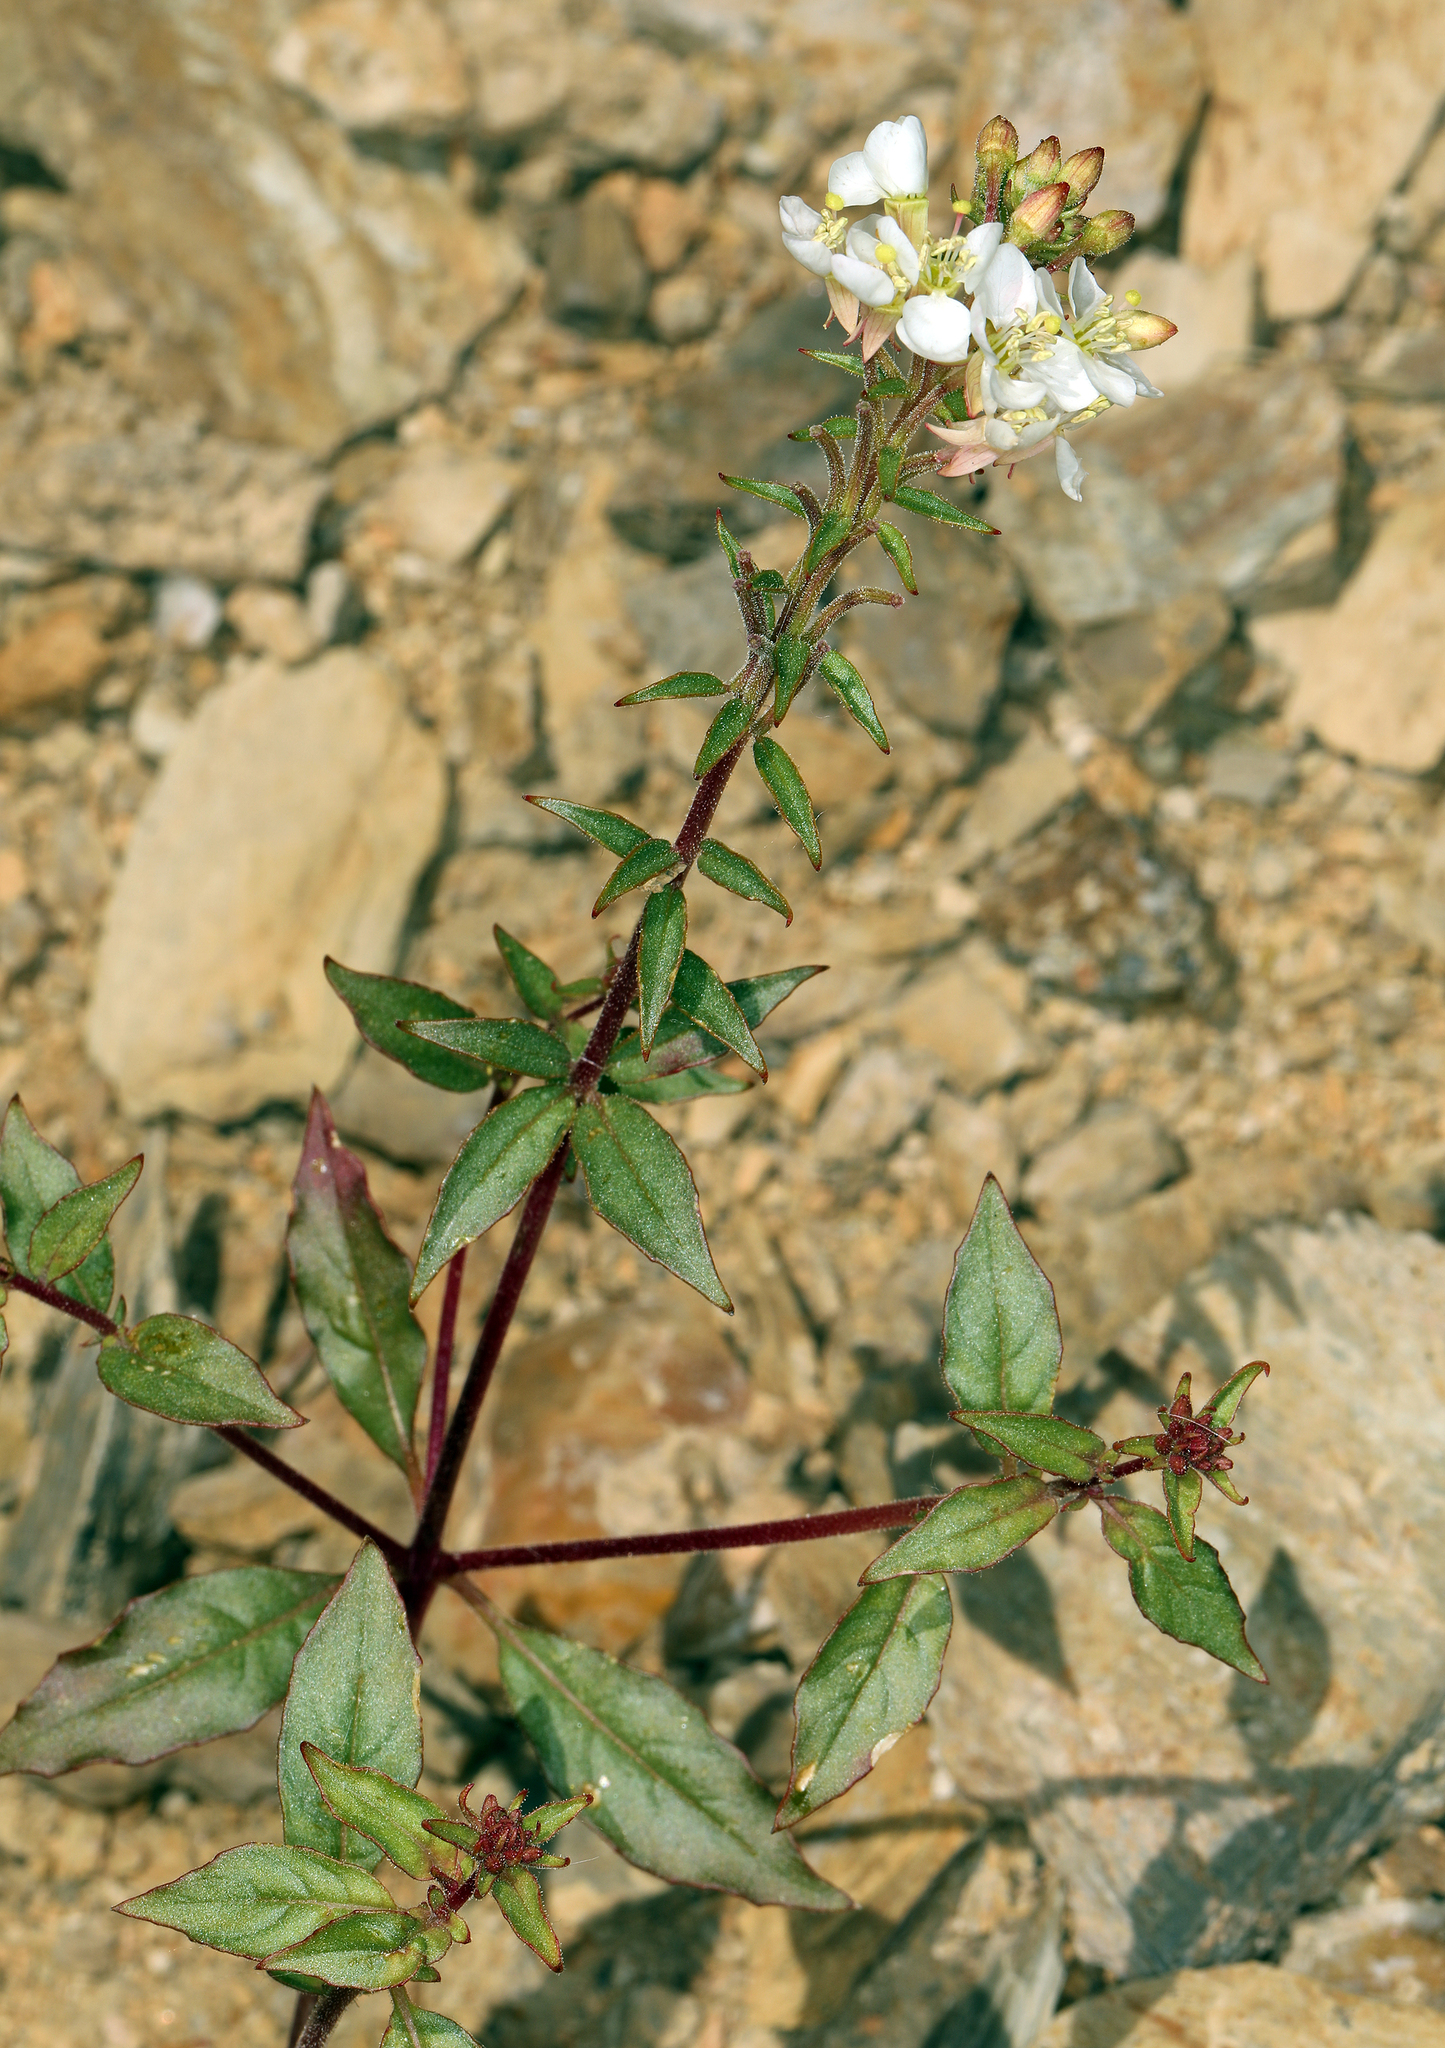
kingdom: Plantae
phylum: Tracheophyta
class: Magnoliopsida
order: Myrtales
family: Onagraceae
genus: Eremothera
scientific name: Eremothera boothii
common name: Booth's evening primrose
